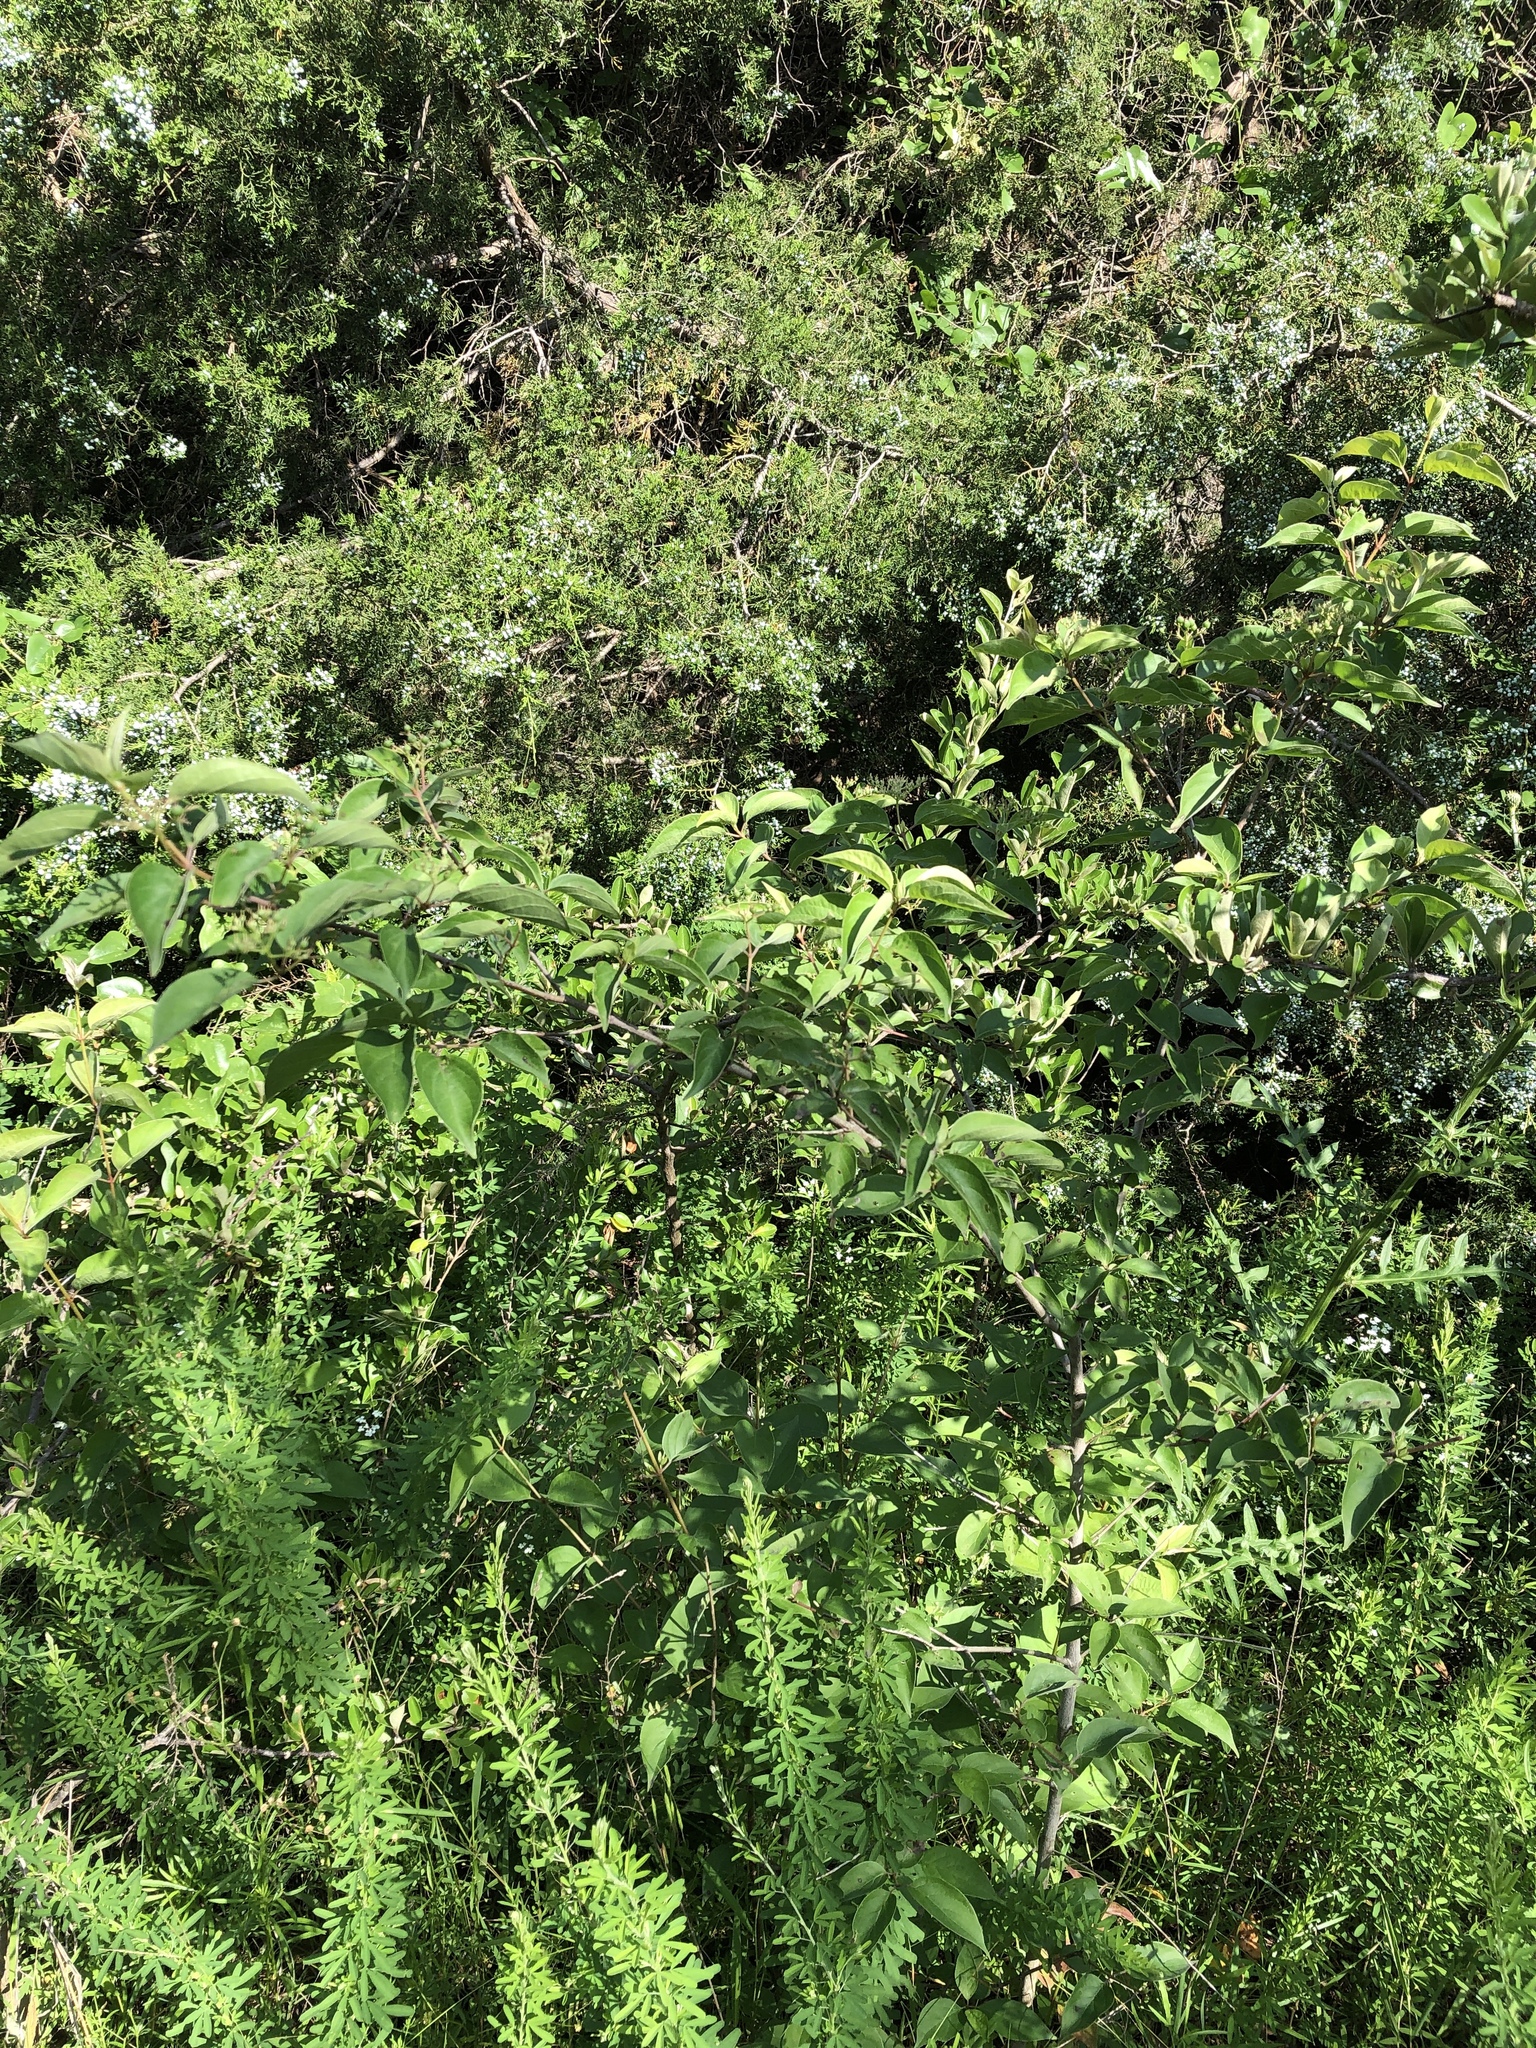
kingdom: Plantae
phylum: Tracheophyta
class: Magnoliopsida
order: Cornales
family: Cornaceae
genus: Cornus
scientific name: Cornus drummondii
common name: Rough-leaf dogwood
